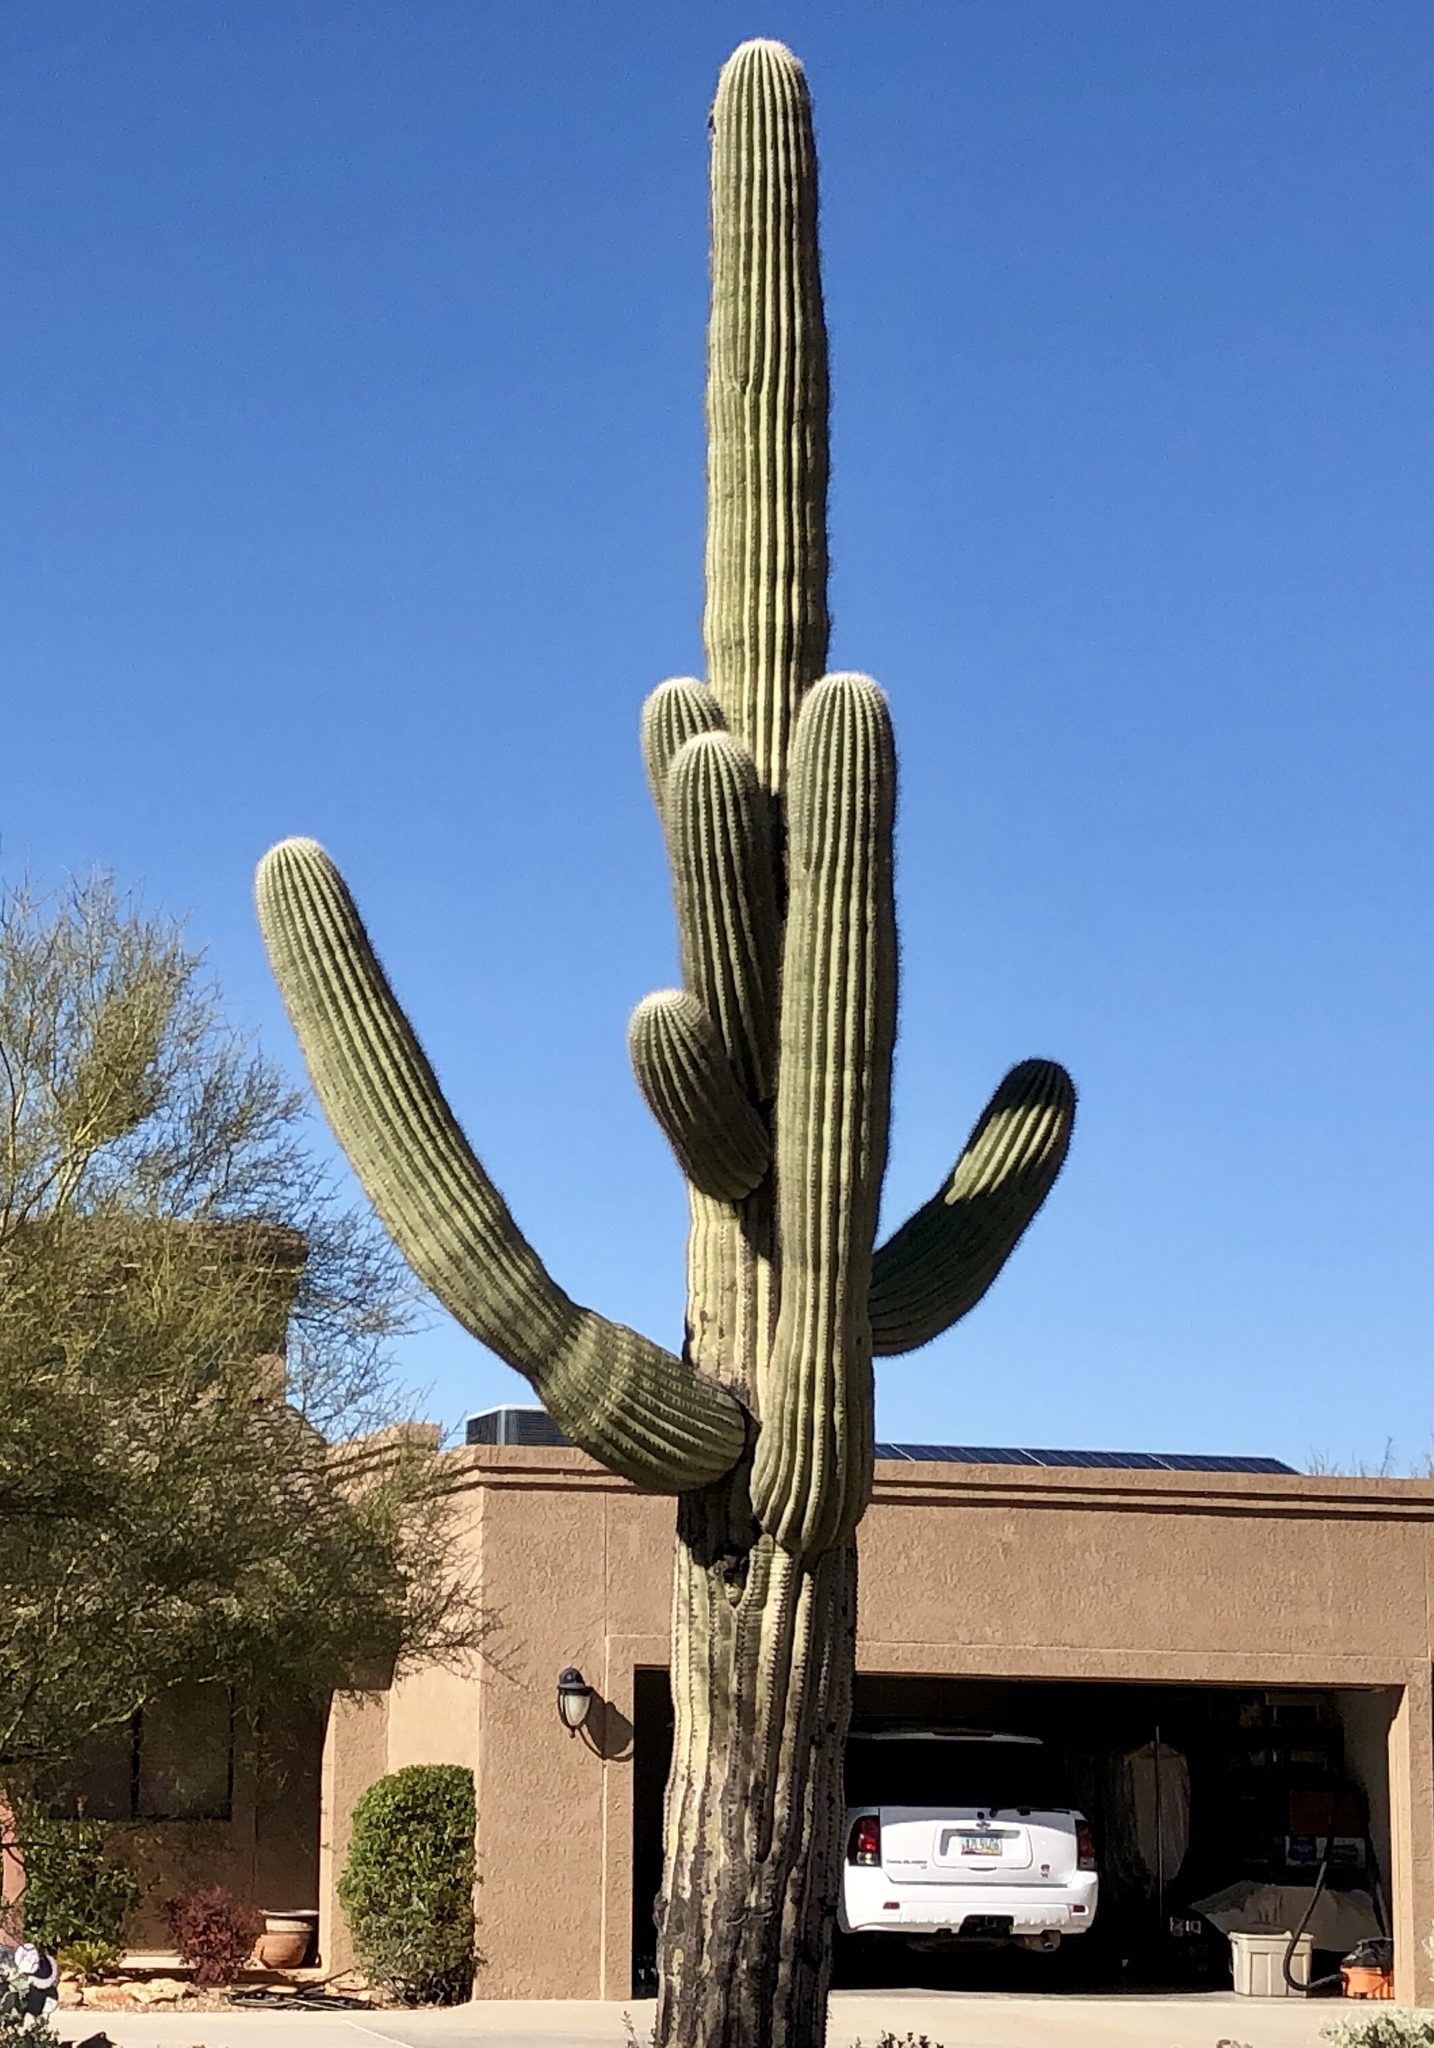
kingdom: Plantae
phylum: Tracheophyta
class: Magnoliopsida
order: Caryophyllales
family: Cactaceae
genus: Carnegiea
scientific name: Carnegiea gigantea
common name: Saguaro
